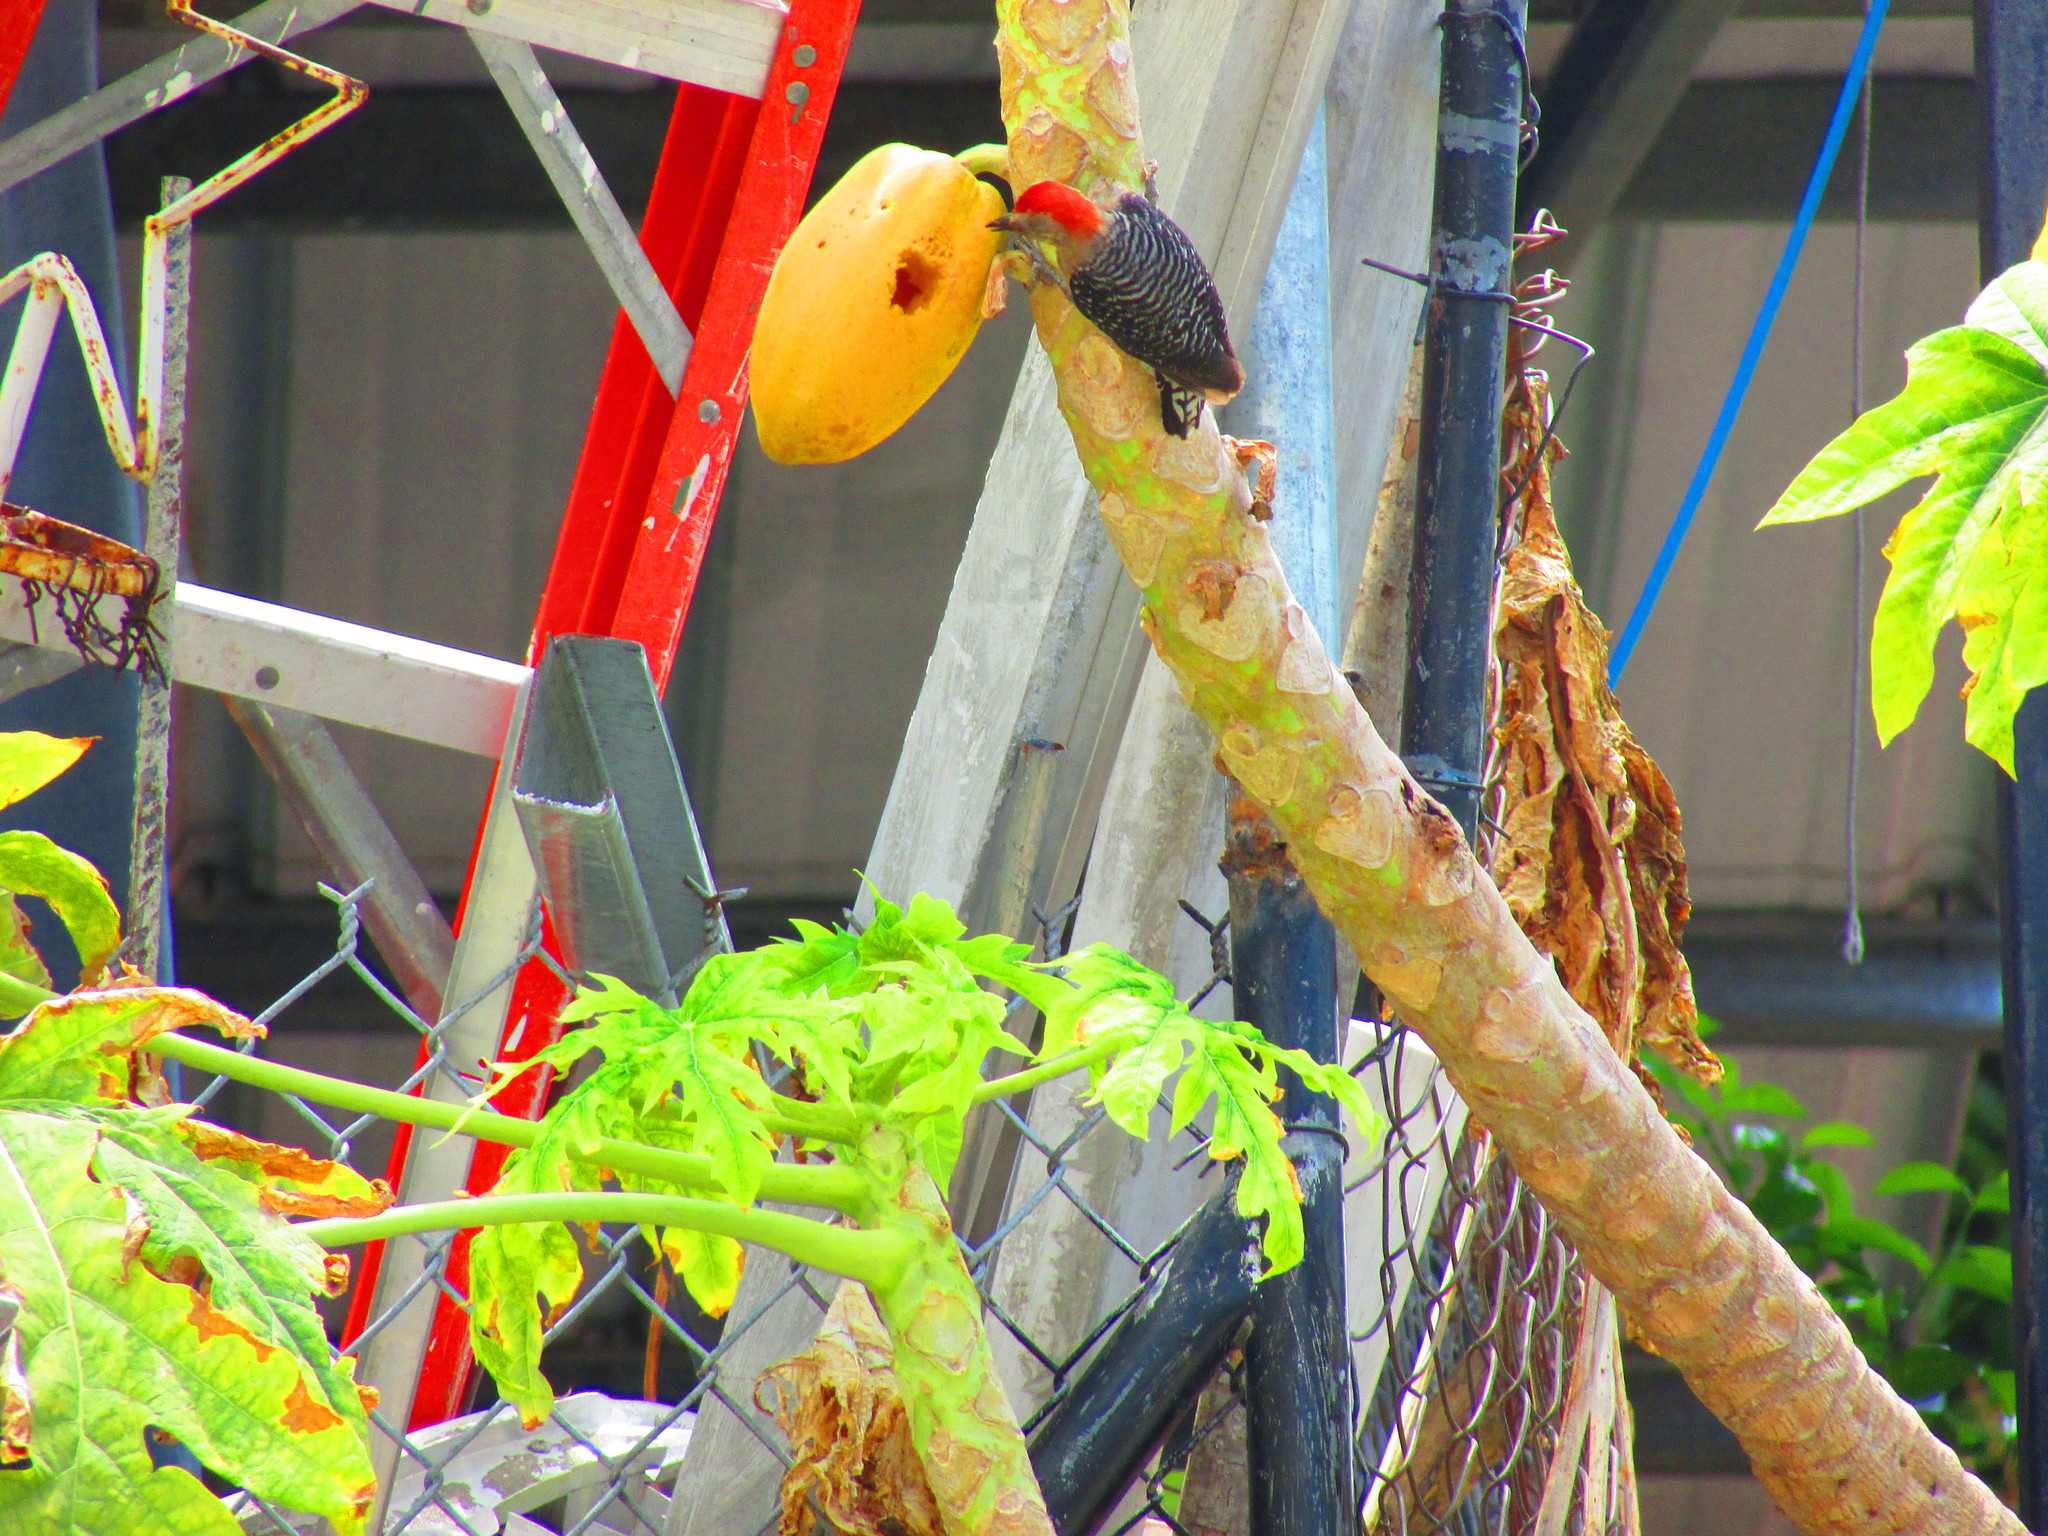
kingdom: Animalia
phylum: Chordata
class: Aves
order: Piciformes
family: Picidae
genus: Melanerpes
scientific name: Melanerpes rubricapillus
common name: Red-crowned woodpecker
